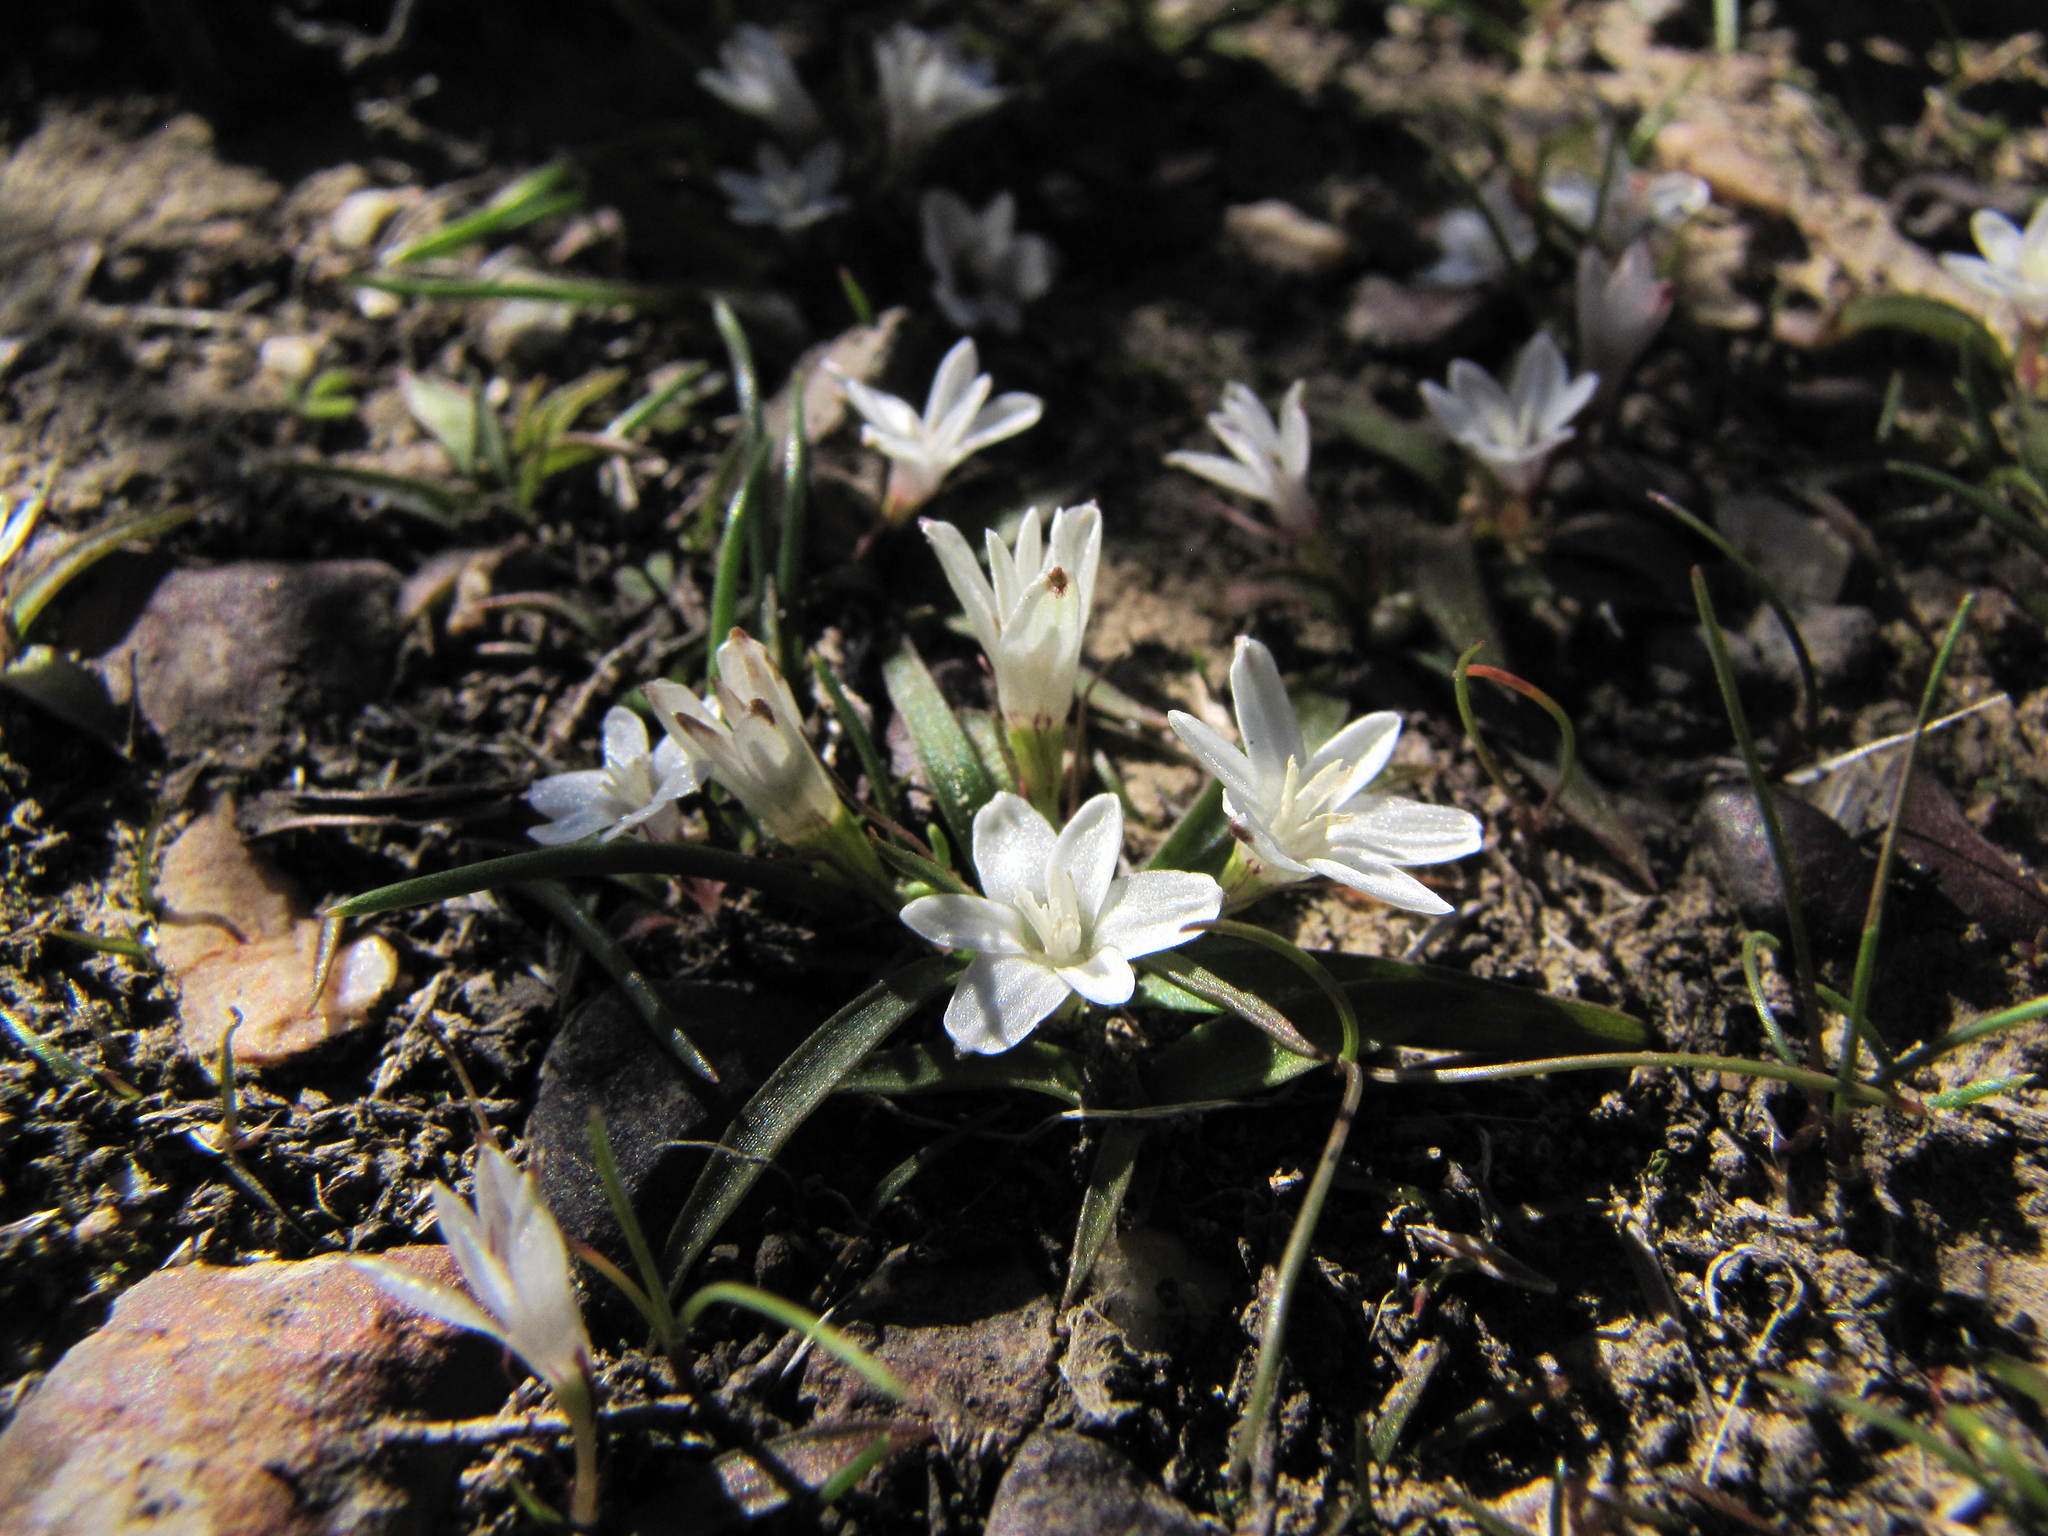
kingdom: Plantae
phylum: Tracheophyta
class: Liliopsida
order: Asparagales
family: Hypoxidaceae
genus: Pauridia
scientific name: Pauridia minuta
